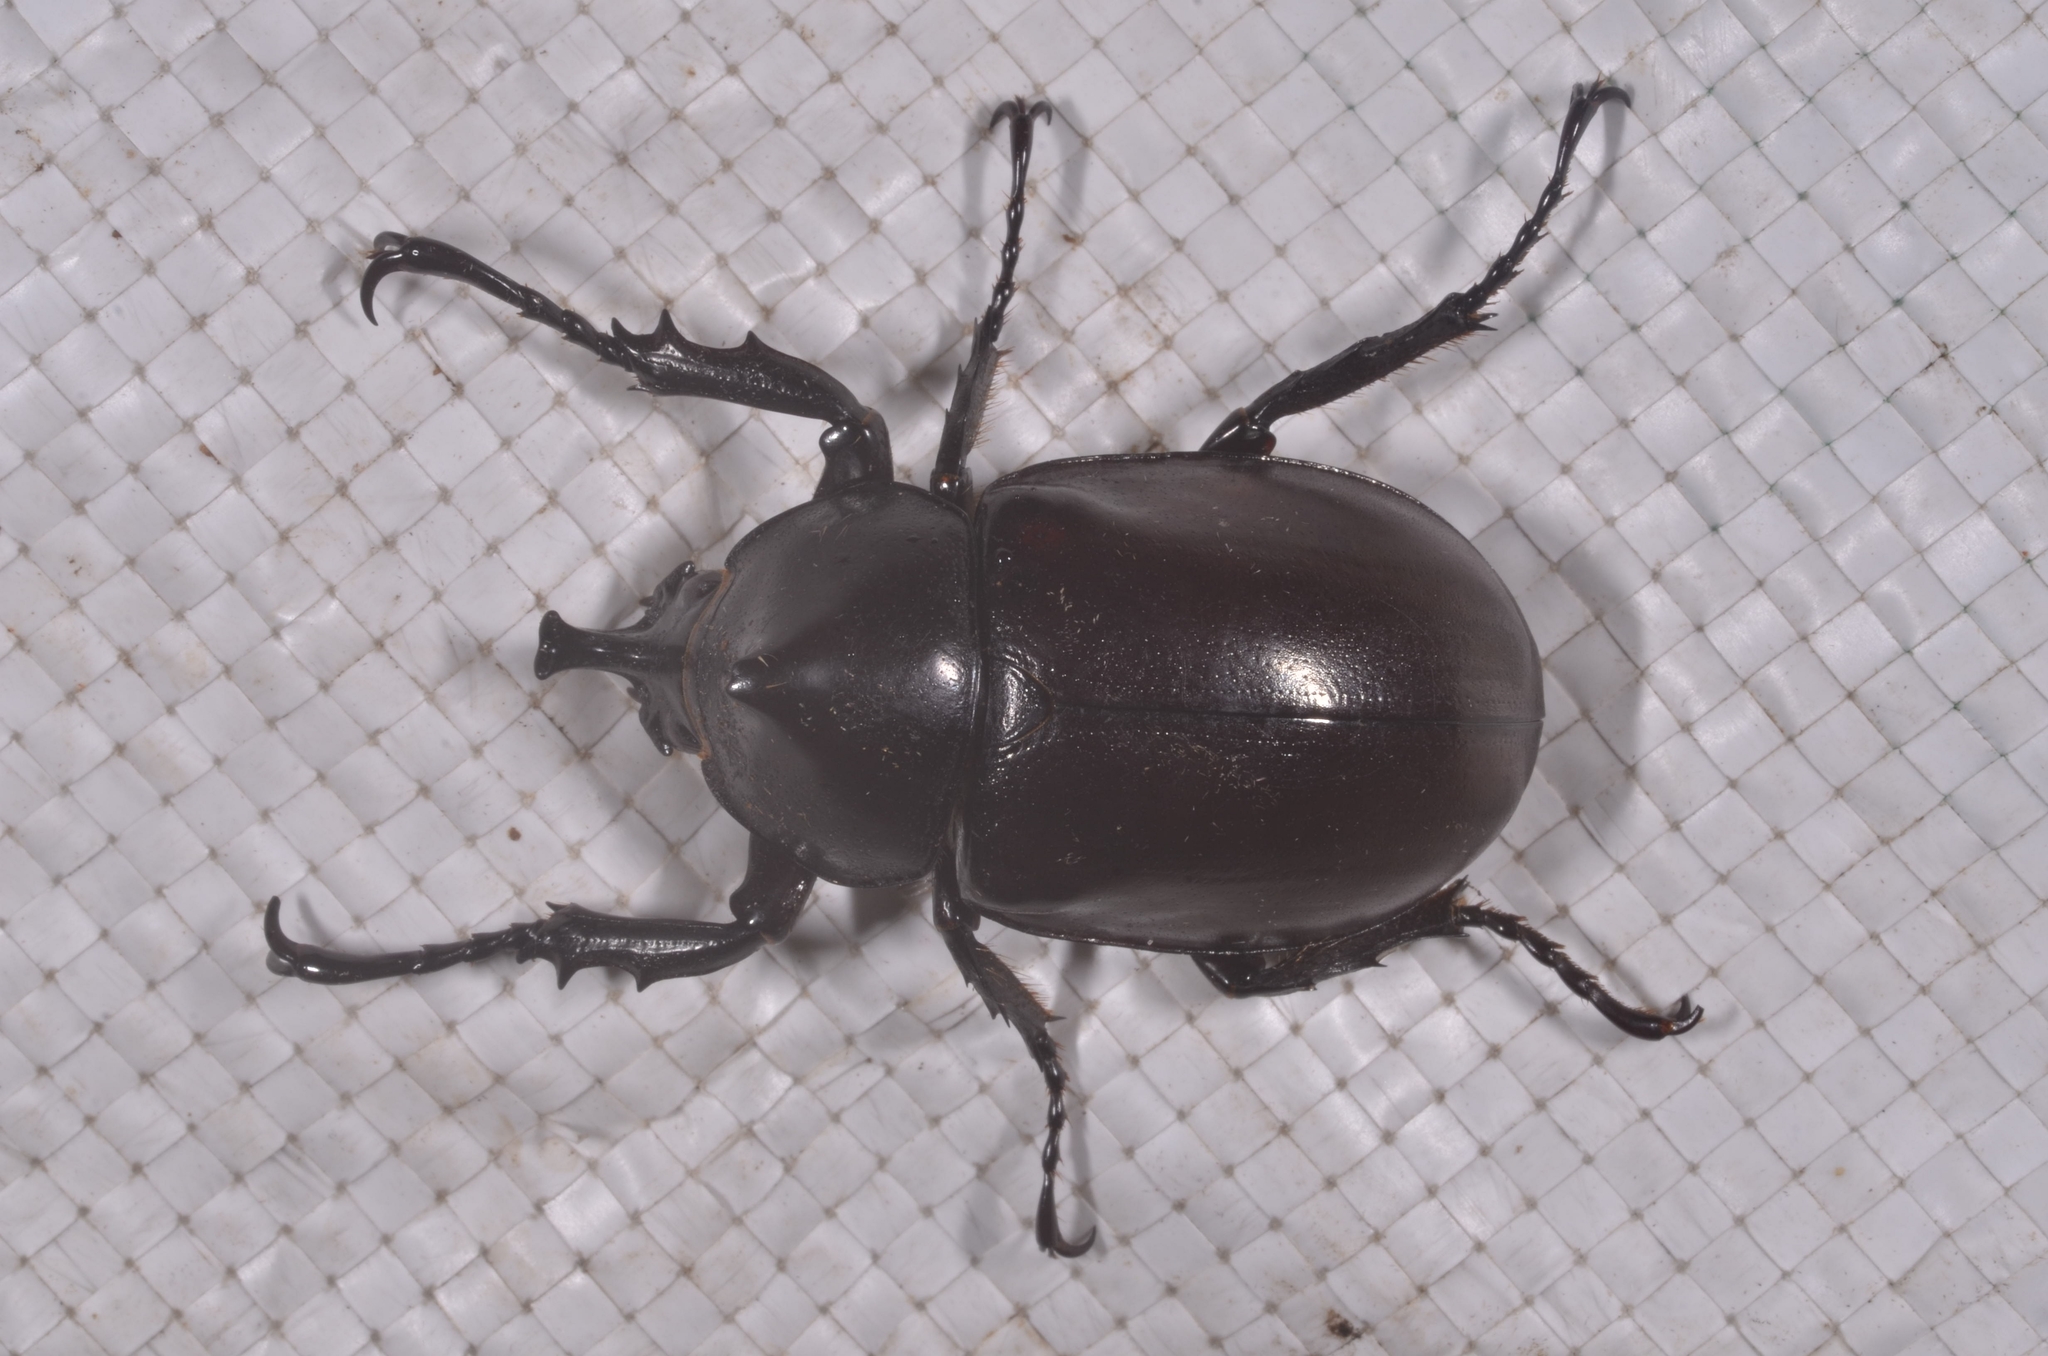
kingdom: Animalia
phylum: Arthropoda
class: Insecta
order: Coleoptera
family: Scarabaeidae
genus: Xylotrupes
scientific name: Xylotrupes socrates
